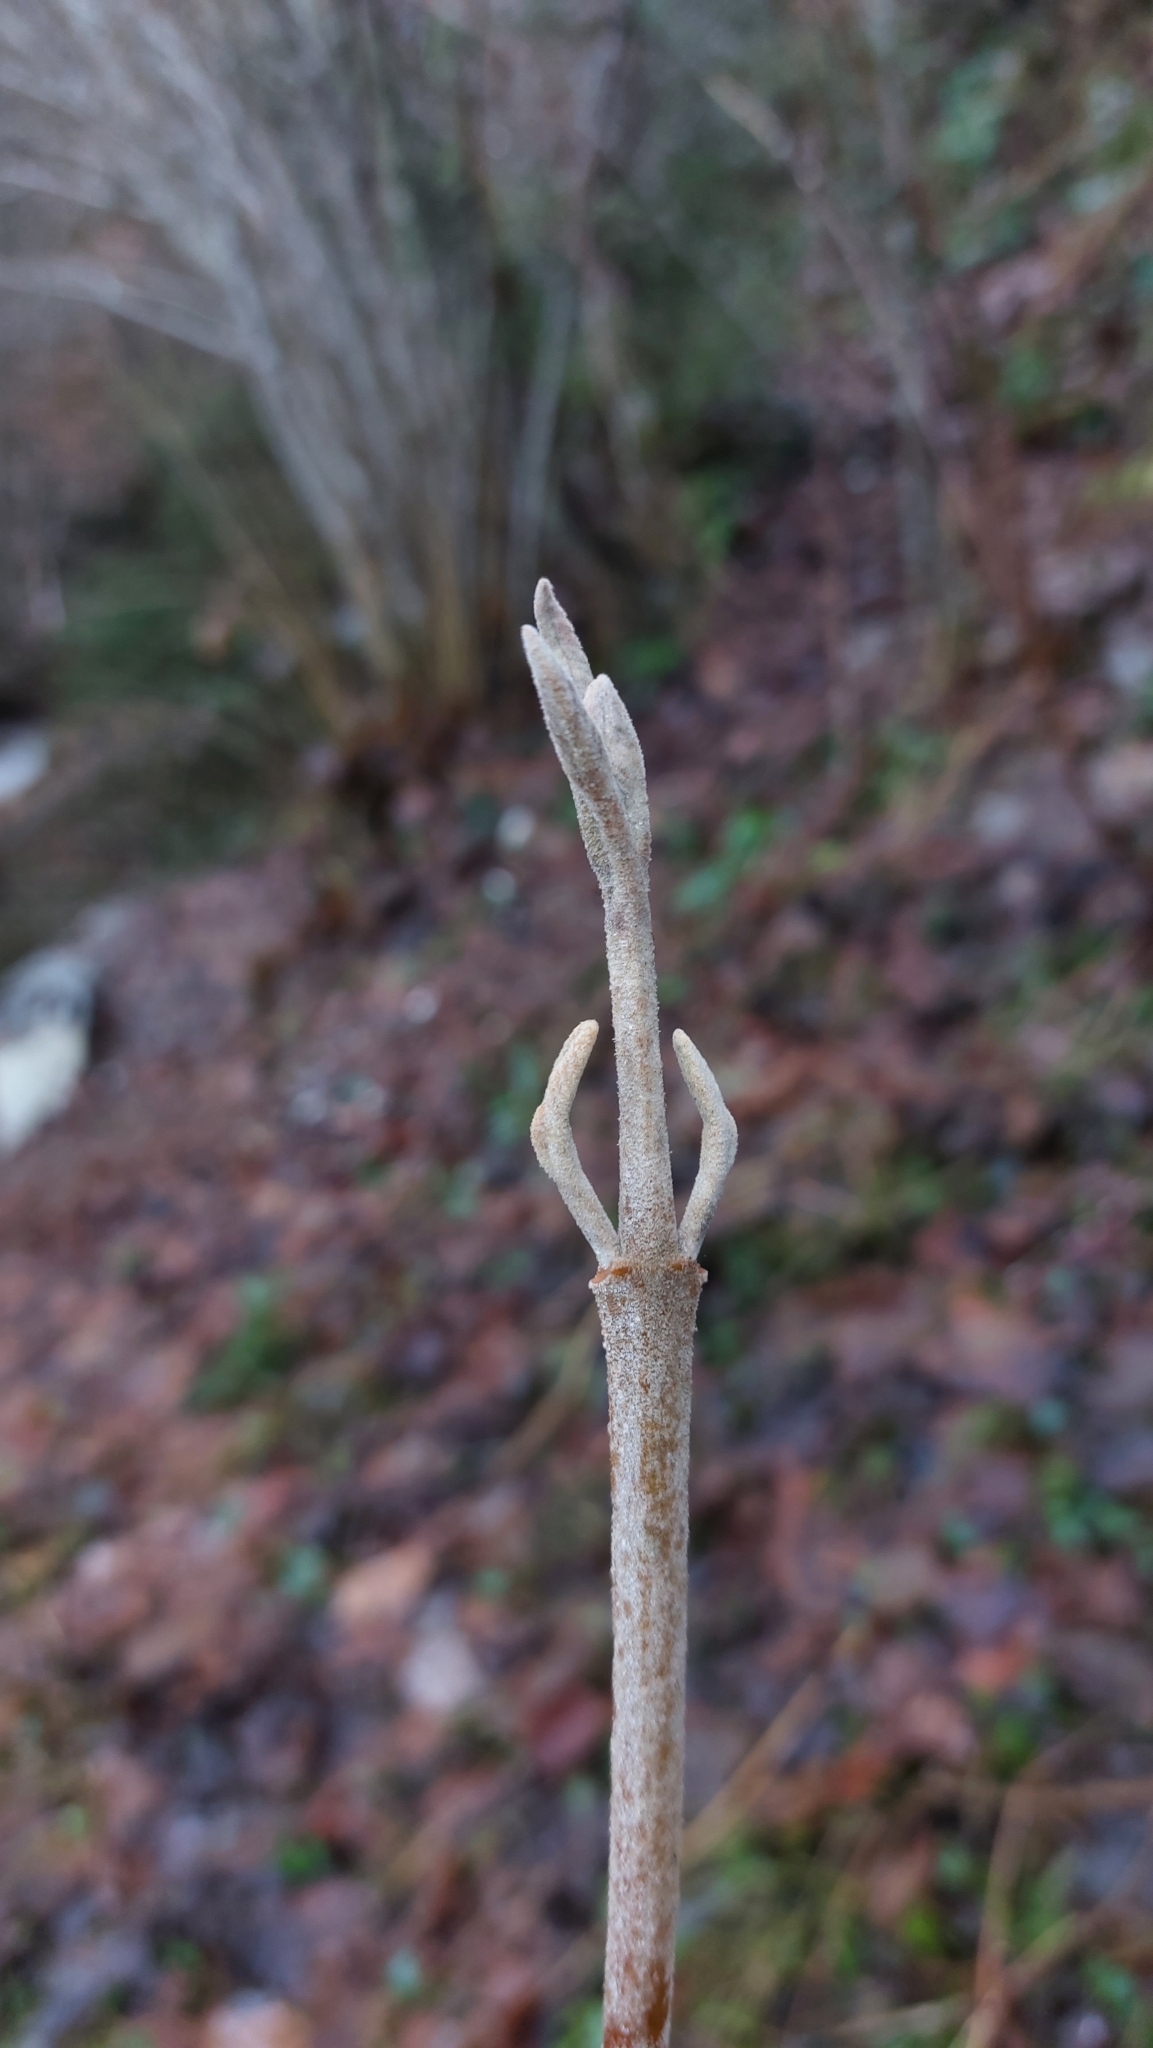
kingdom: Plantae
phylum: Tracheophyta
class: Magnoliopsida
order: Dipsacales
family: Viburnaceae
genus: Viburnum
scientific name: Viburnum lantana
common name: Wayfaring tree
